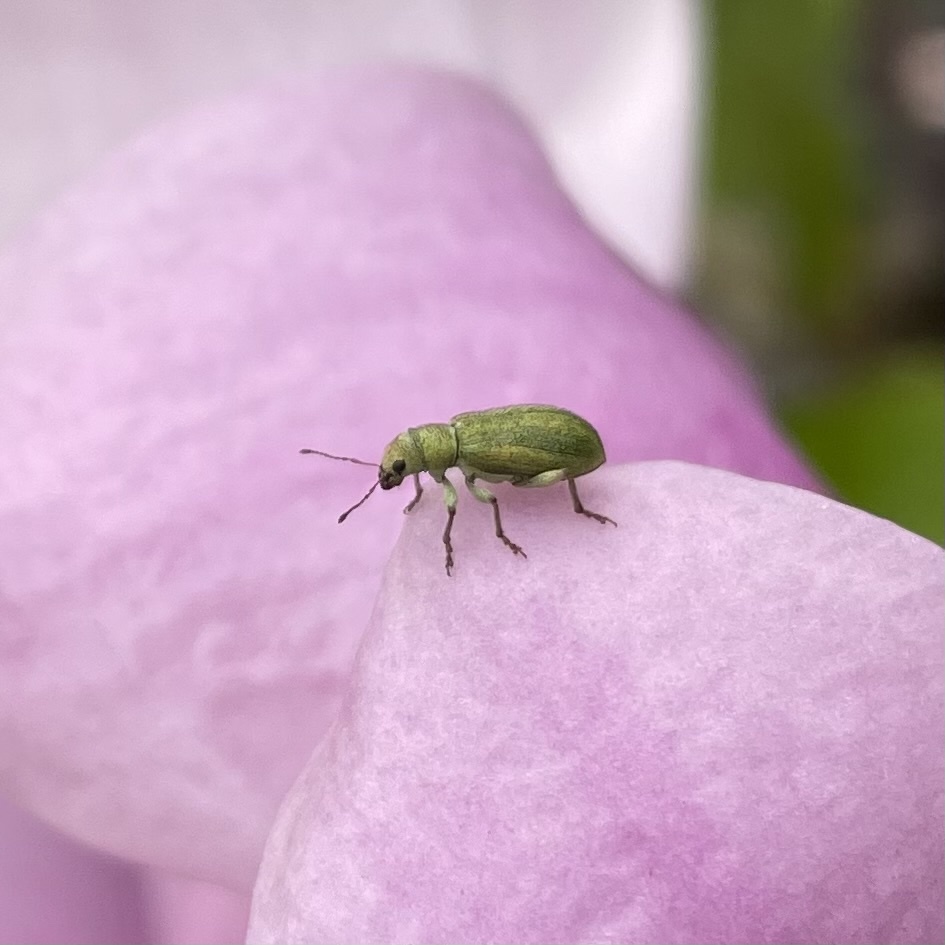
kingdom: Animalia
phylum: Arthropoda
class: Insecta
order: Coleoptera
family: Curculionidae
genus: Pachyrhinus
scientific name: Pachyrhinus lethierryi
